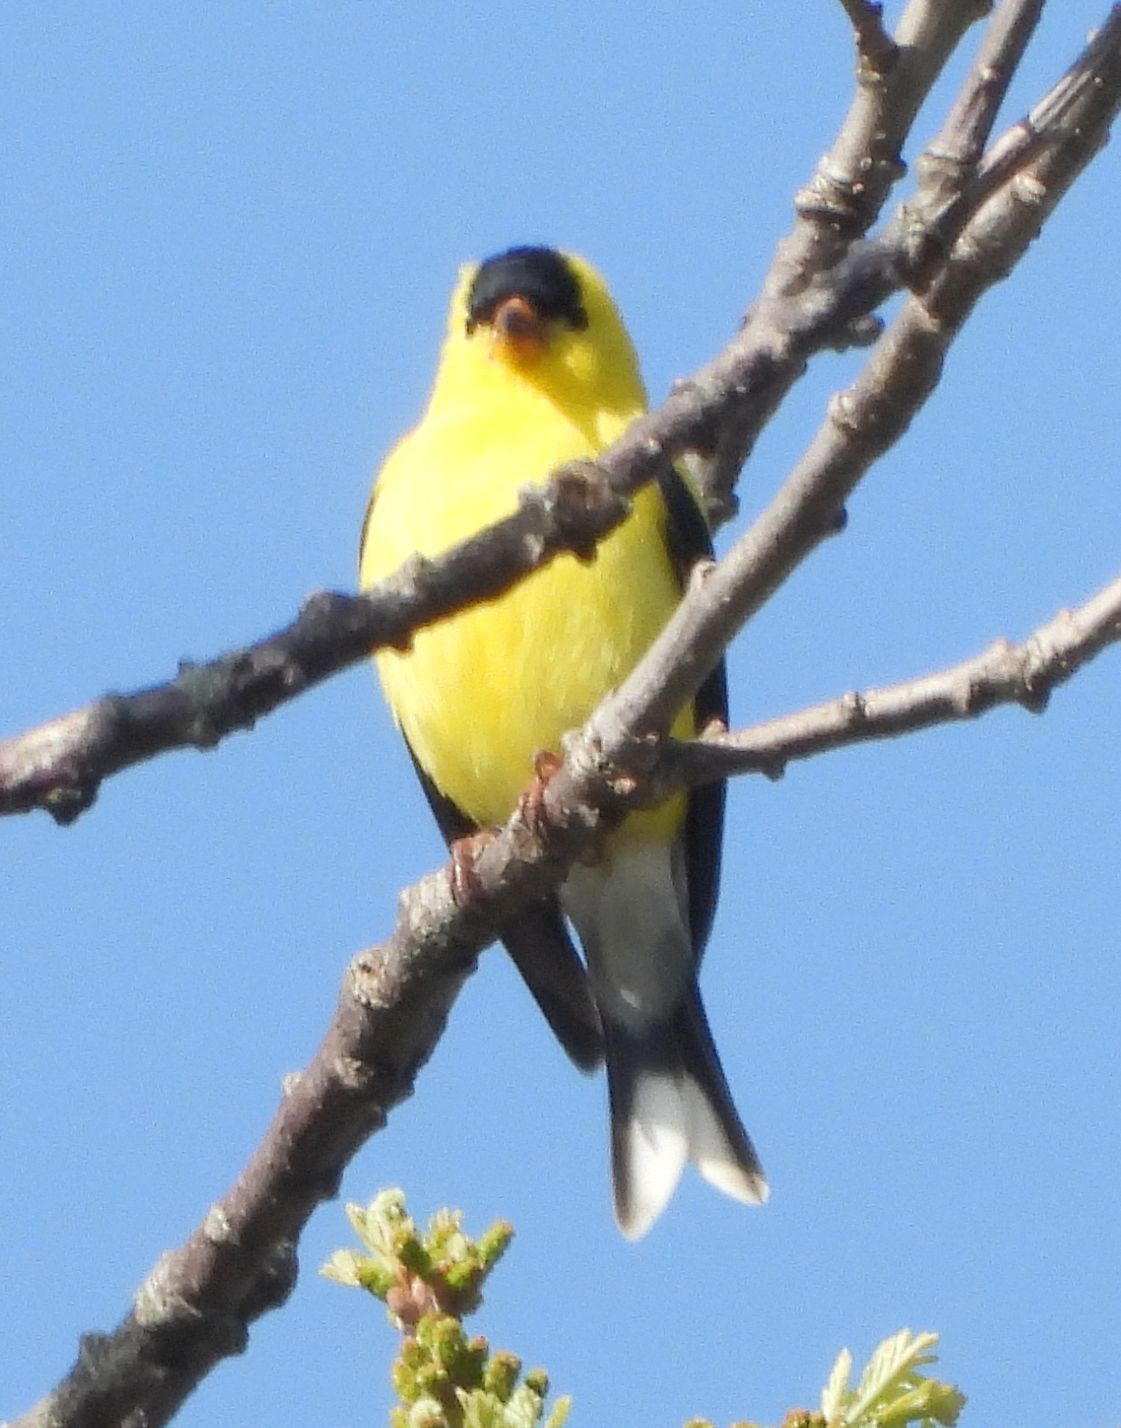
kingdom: Animalia
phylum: Chordata
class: Aves
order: Passeriformes
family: Fringillidae
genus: Spinus
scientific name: Spinus tristis
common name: American goldfinch
